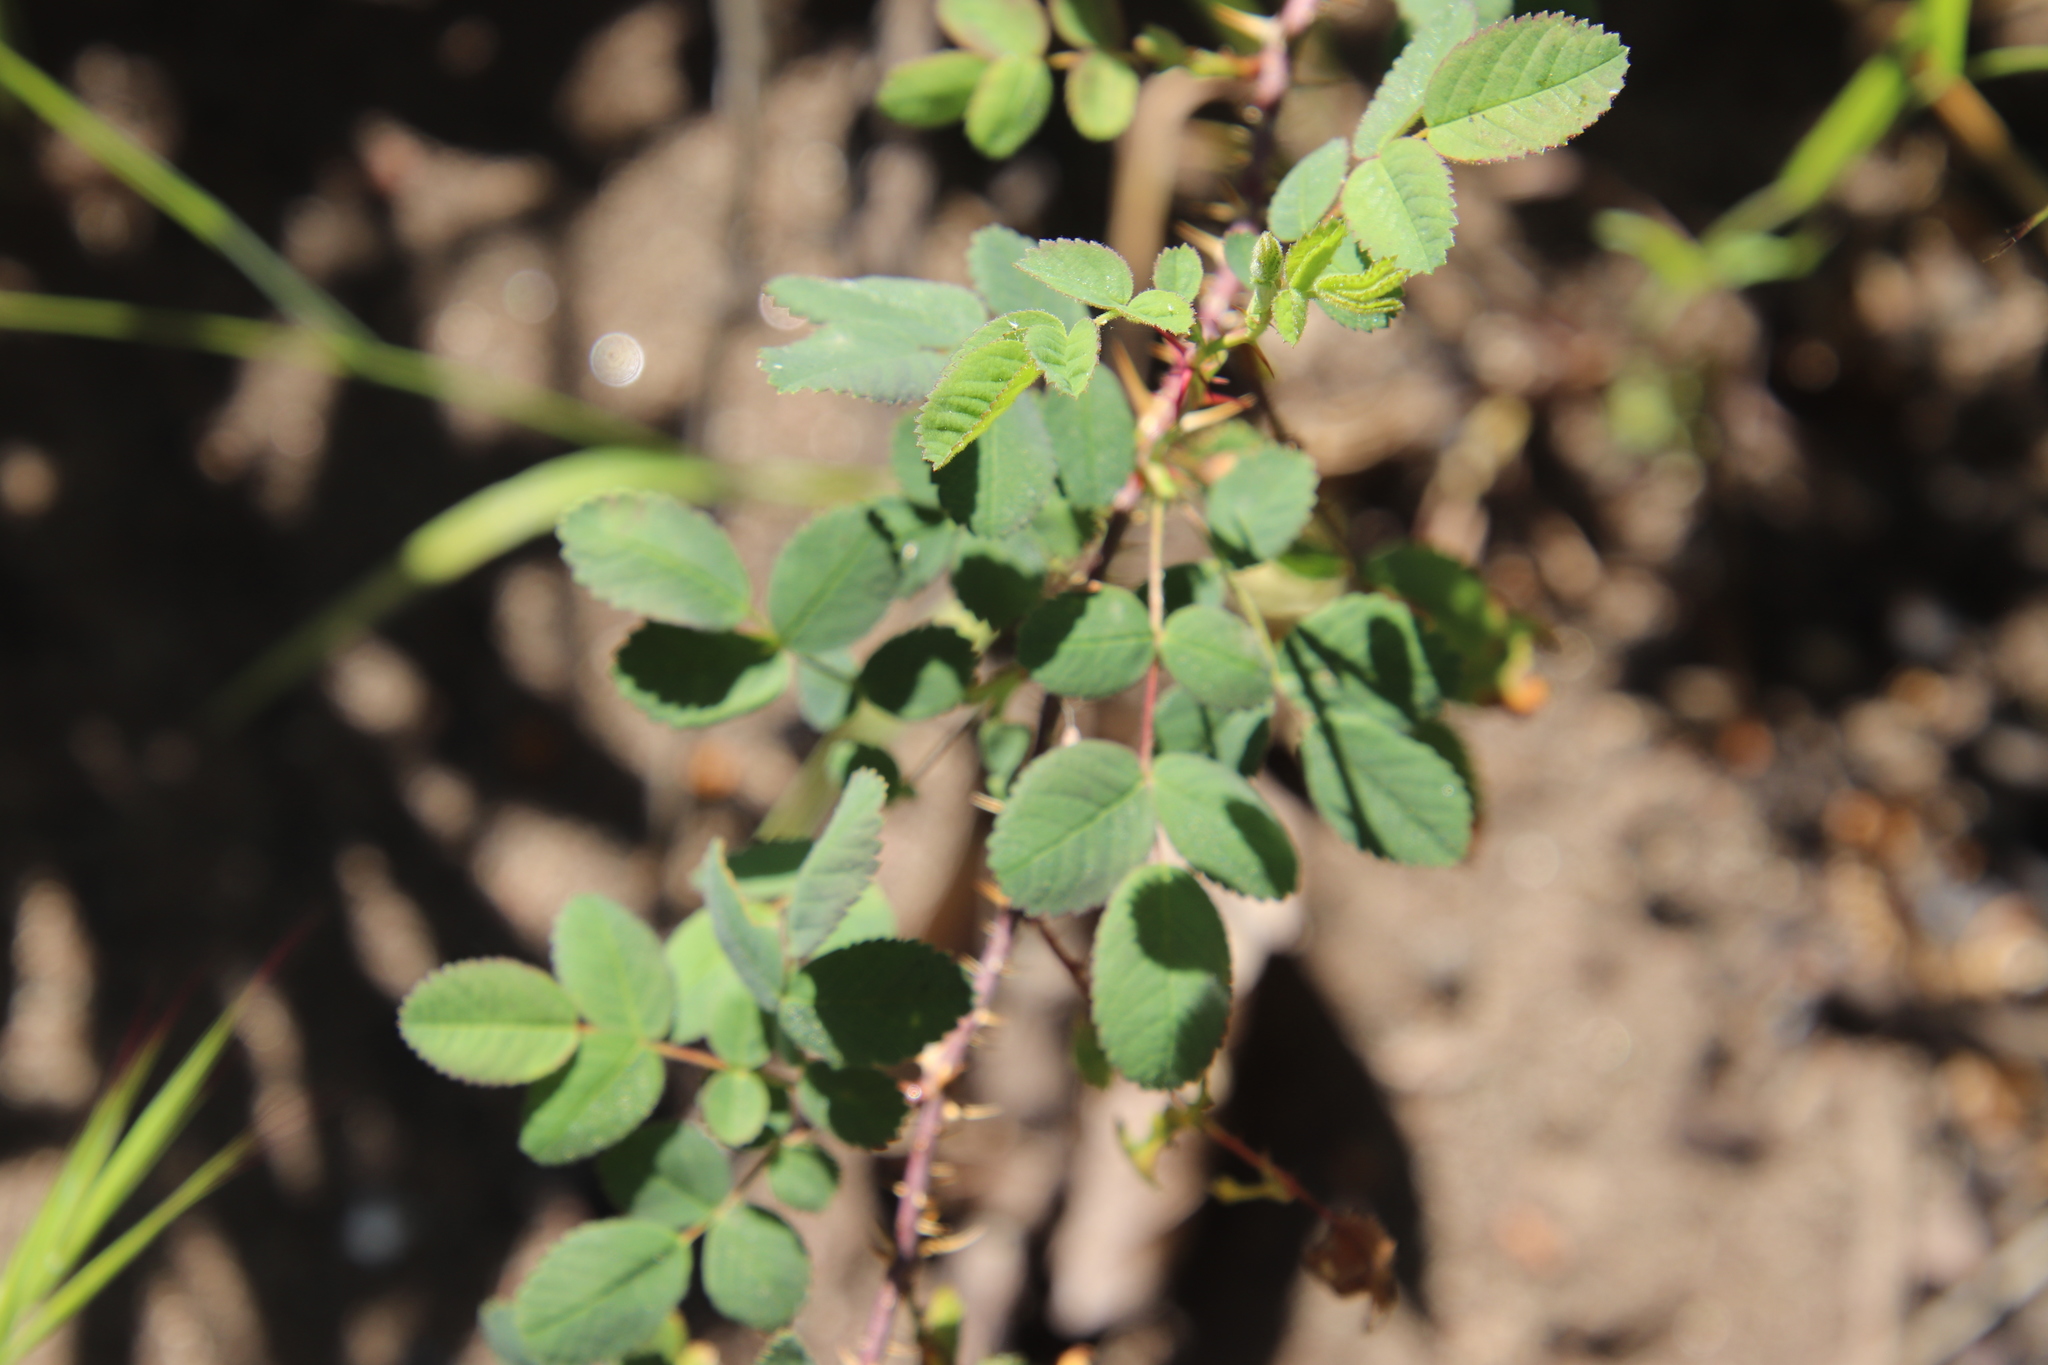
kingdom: Plantae
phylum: Tracheophyta
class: Magnoliopsida
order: Rosales
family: Rosaceae
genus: Rosa
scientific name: Rosa californica
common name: California rose
